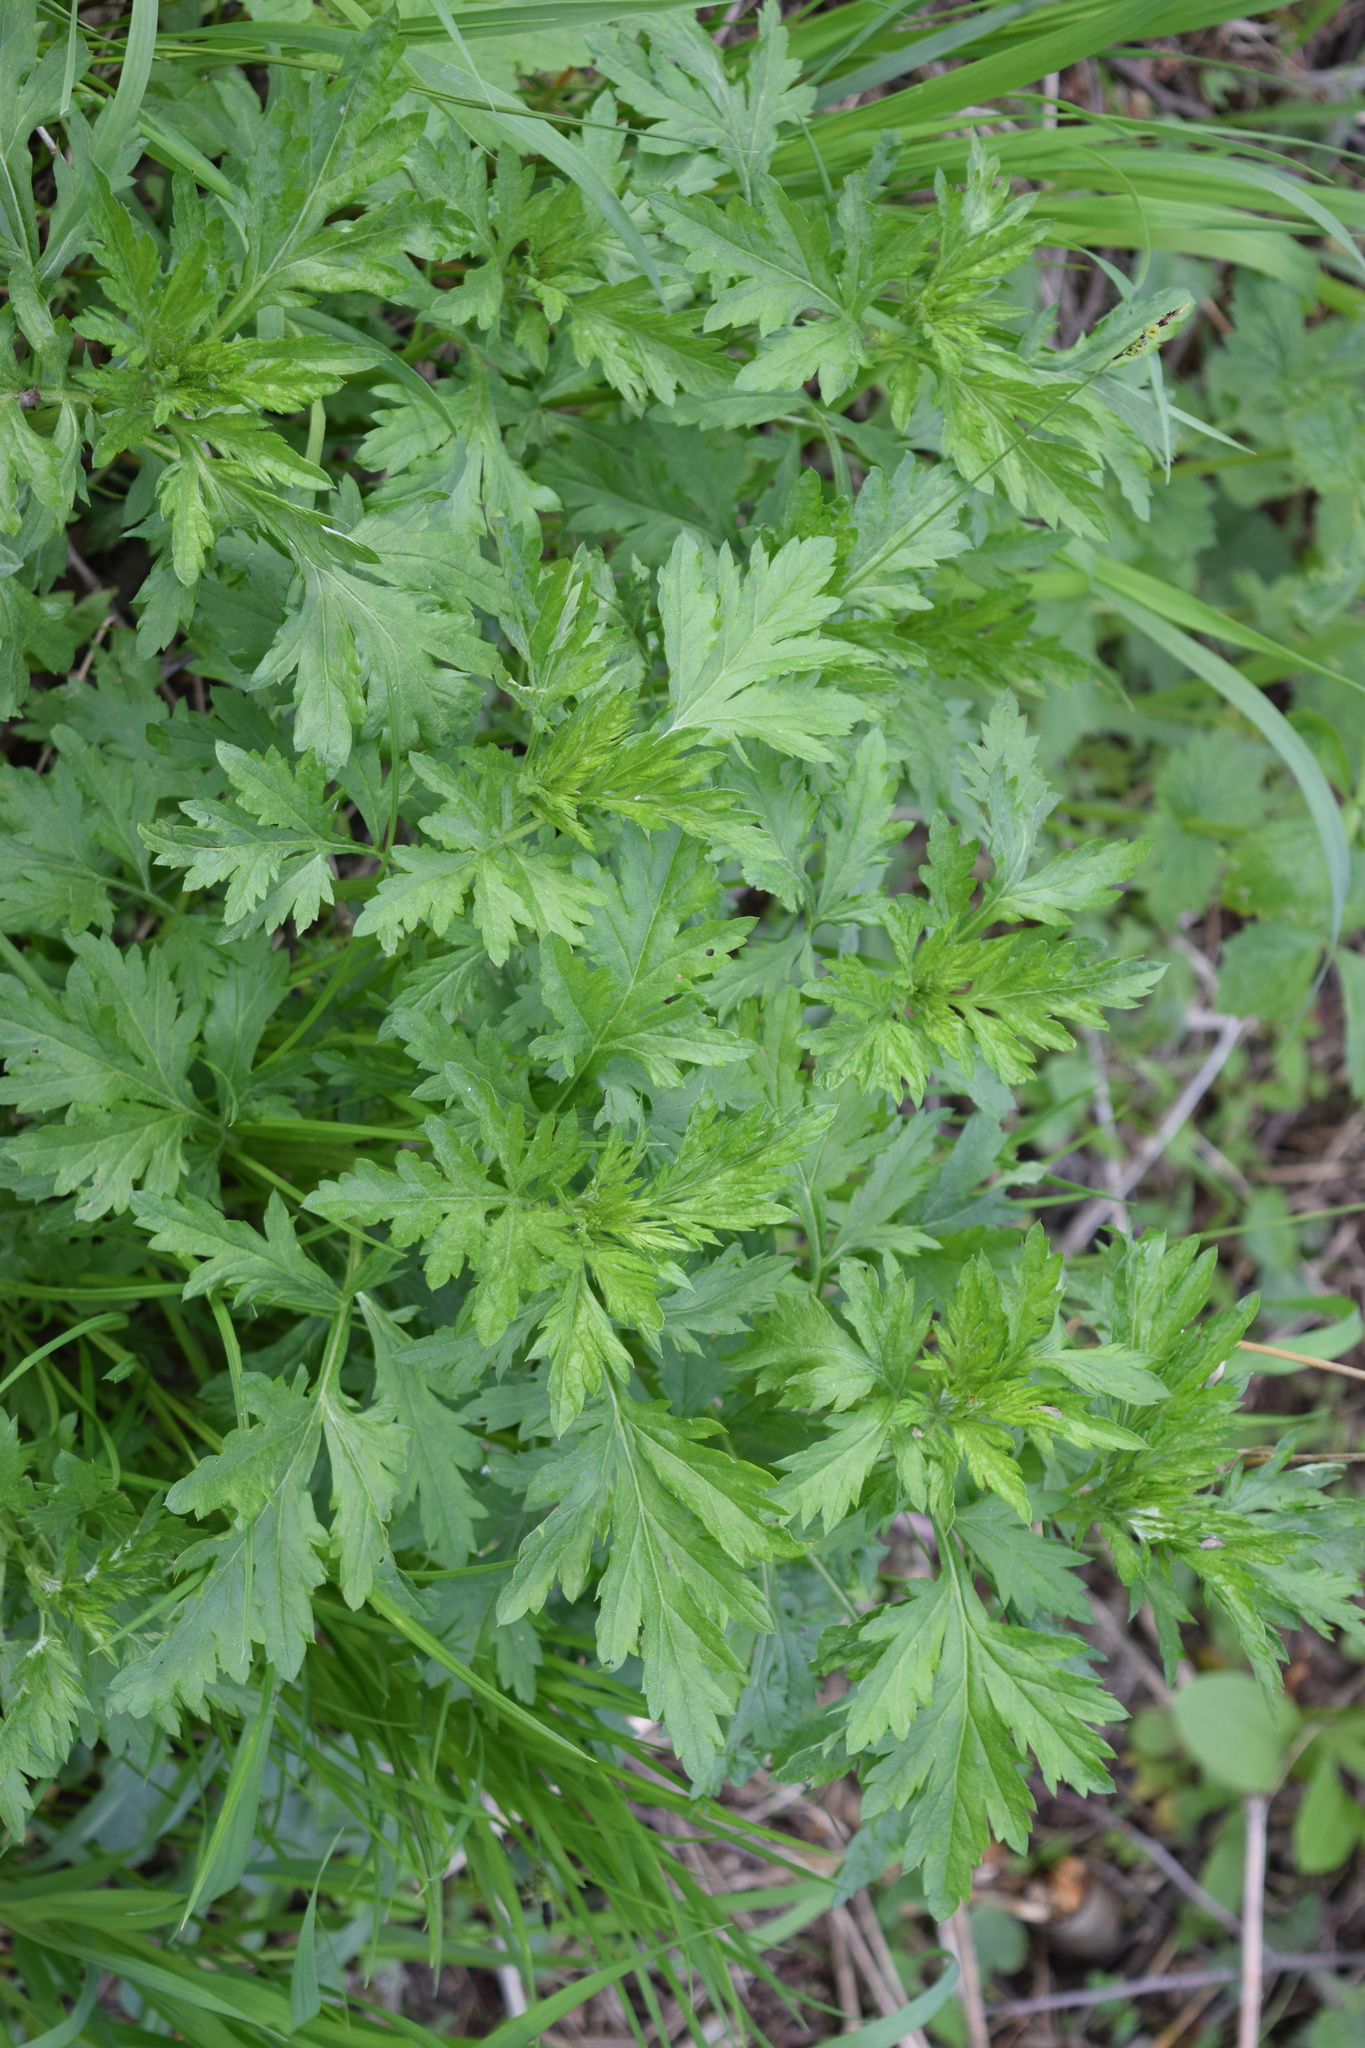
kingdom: Plantae
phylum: Tracheophyta
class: Magnoliopsida
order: Asterales
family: Asteraceae
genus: Artemisia
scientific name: Artemisia vulgaris
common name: Mugwort
